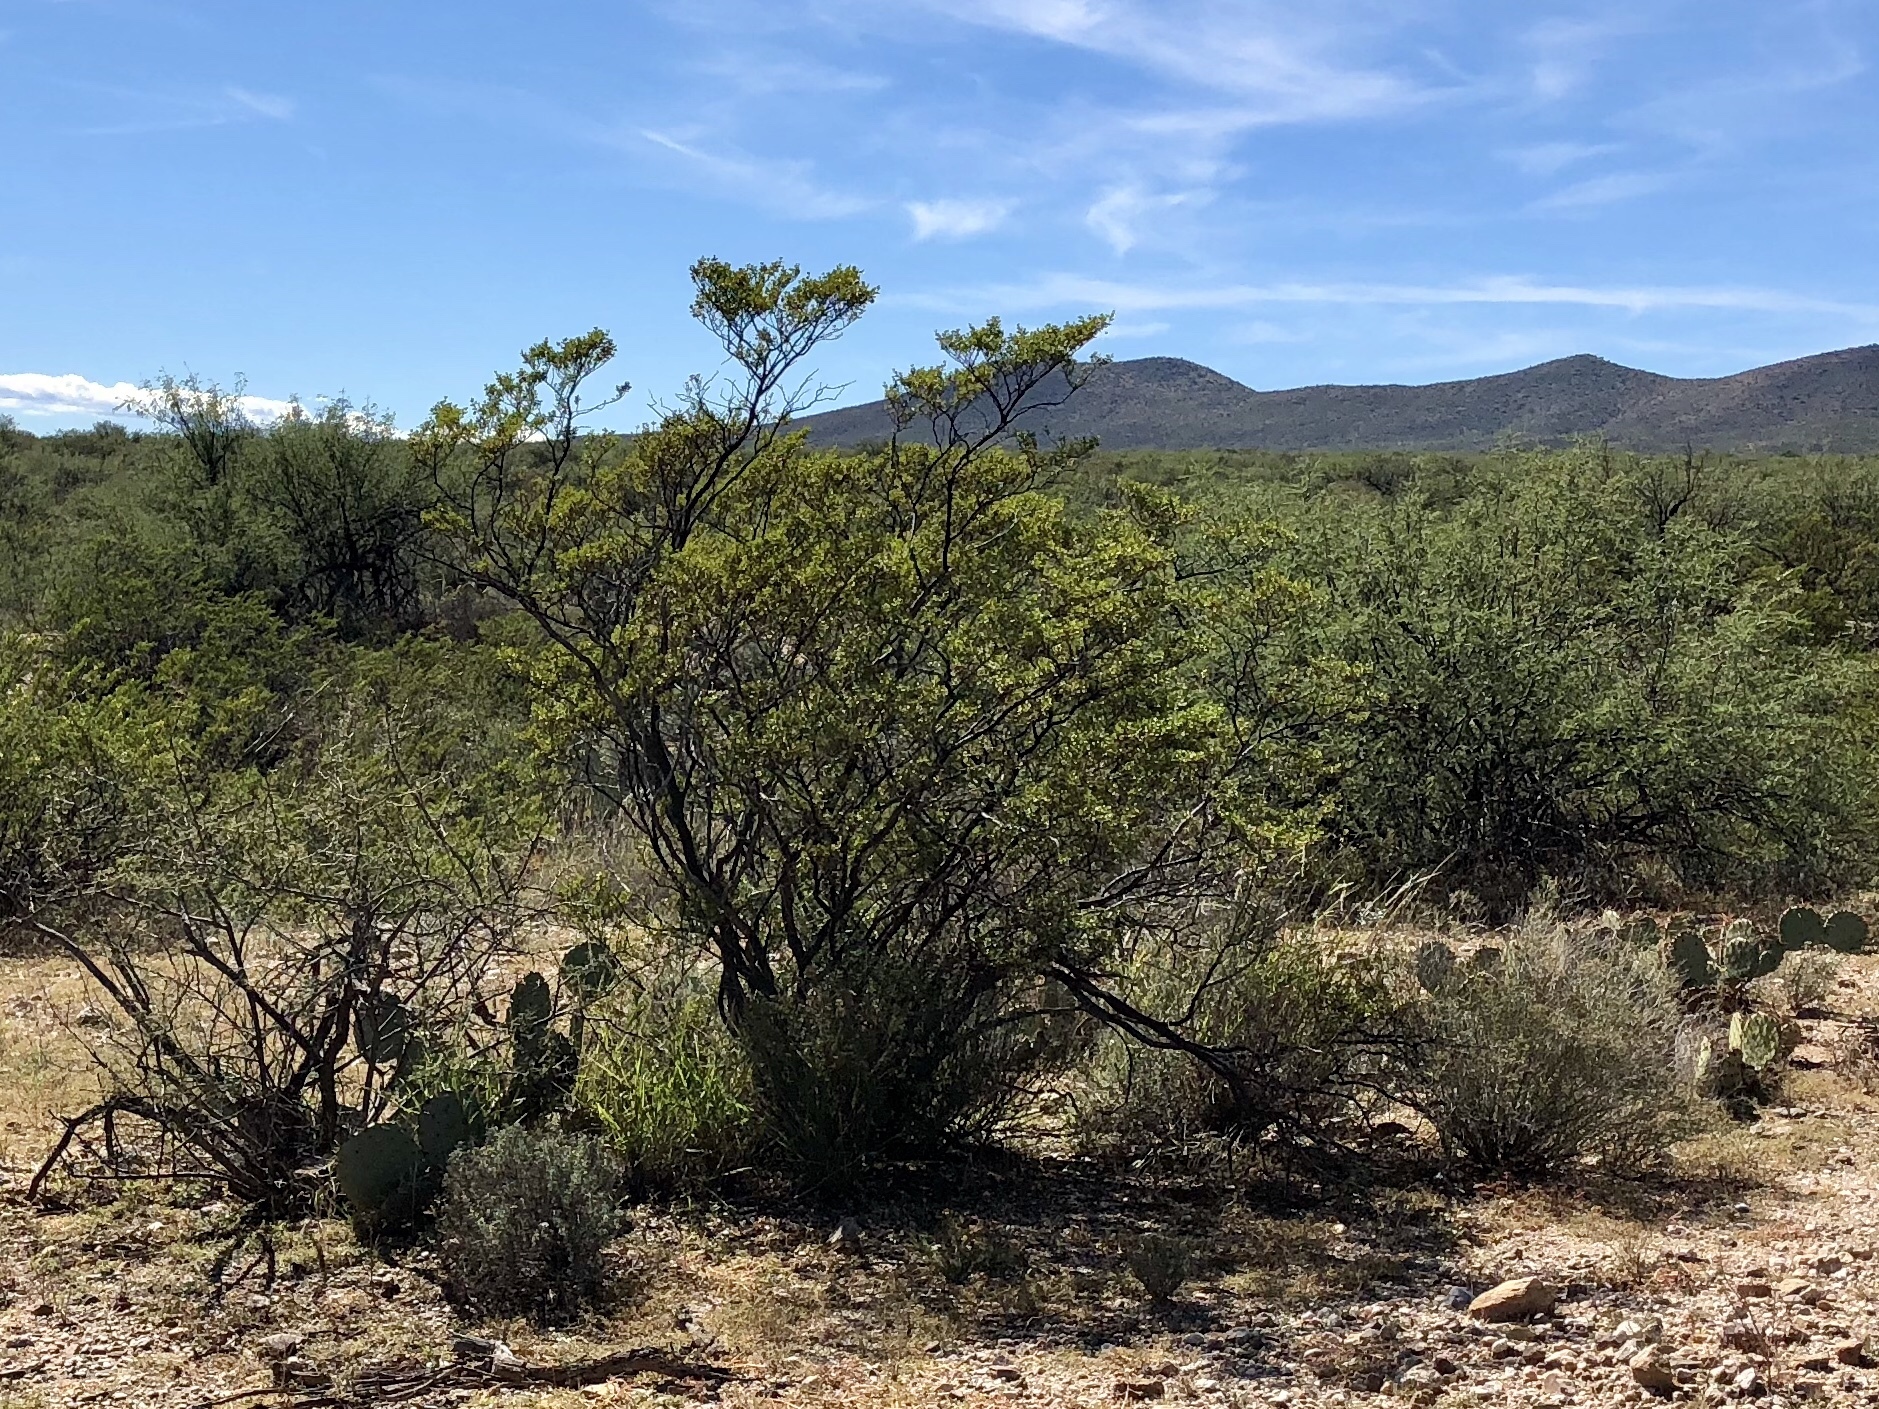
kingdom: Plantae
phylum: Tracheophyta
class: Magnoliopsida
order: Zygophyllales
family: Zygophyllaceae
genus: Larrea
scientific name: Larrea tridentata
